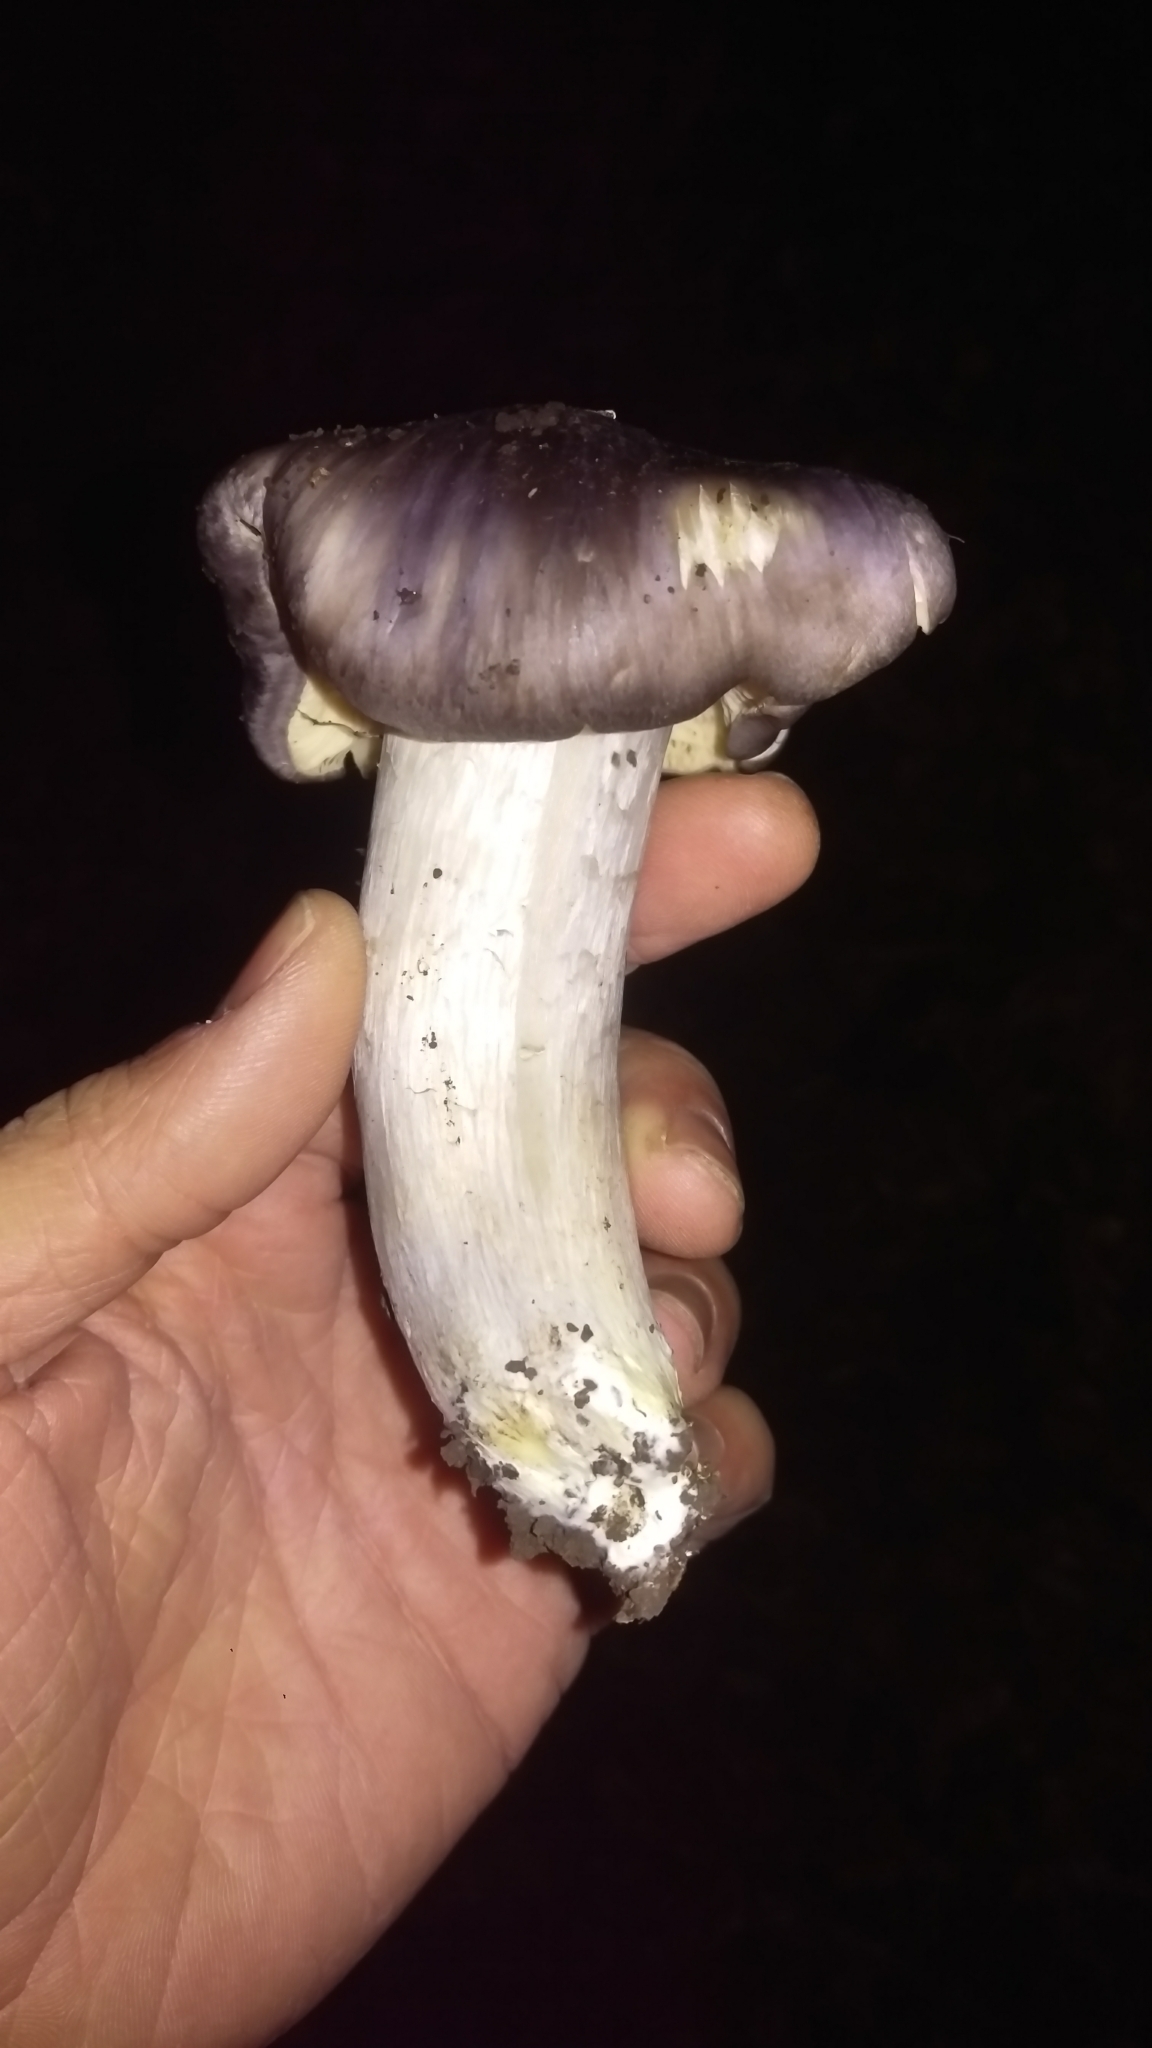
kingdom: Fungi
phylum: Basidiomycota
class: Agaricomycetes
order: Agaricales
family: Entolomataceae
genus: Entoloma
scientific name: Entoloma ferruginans
